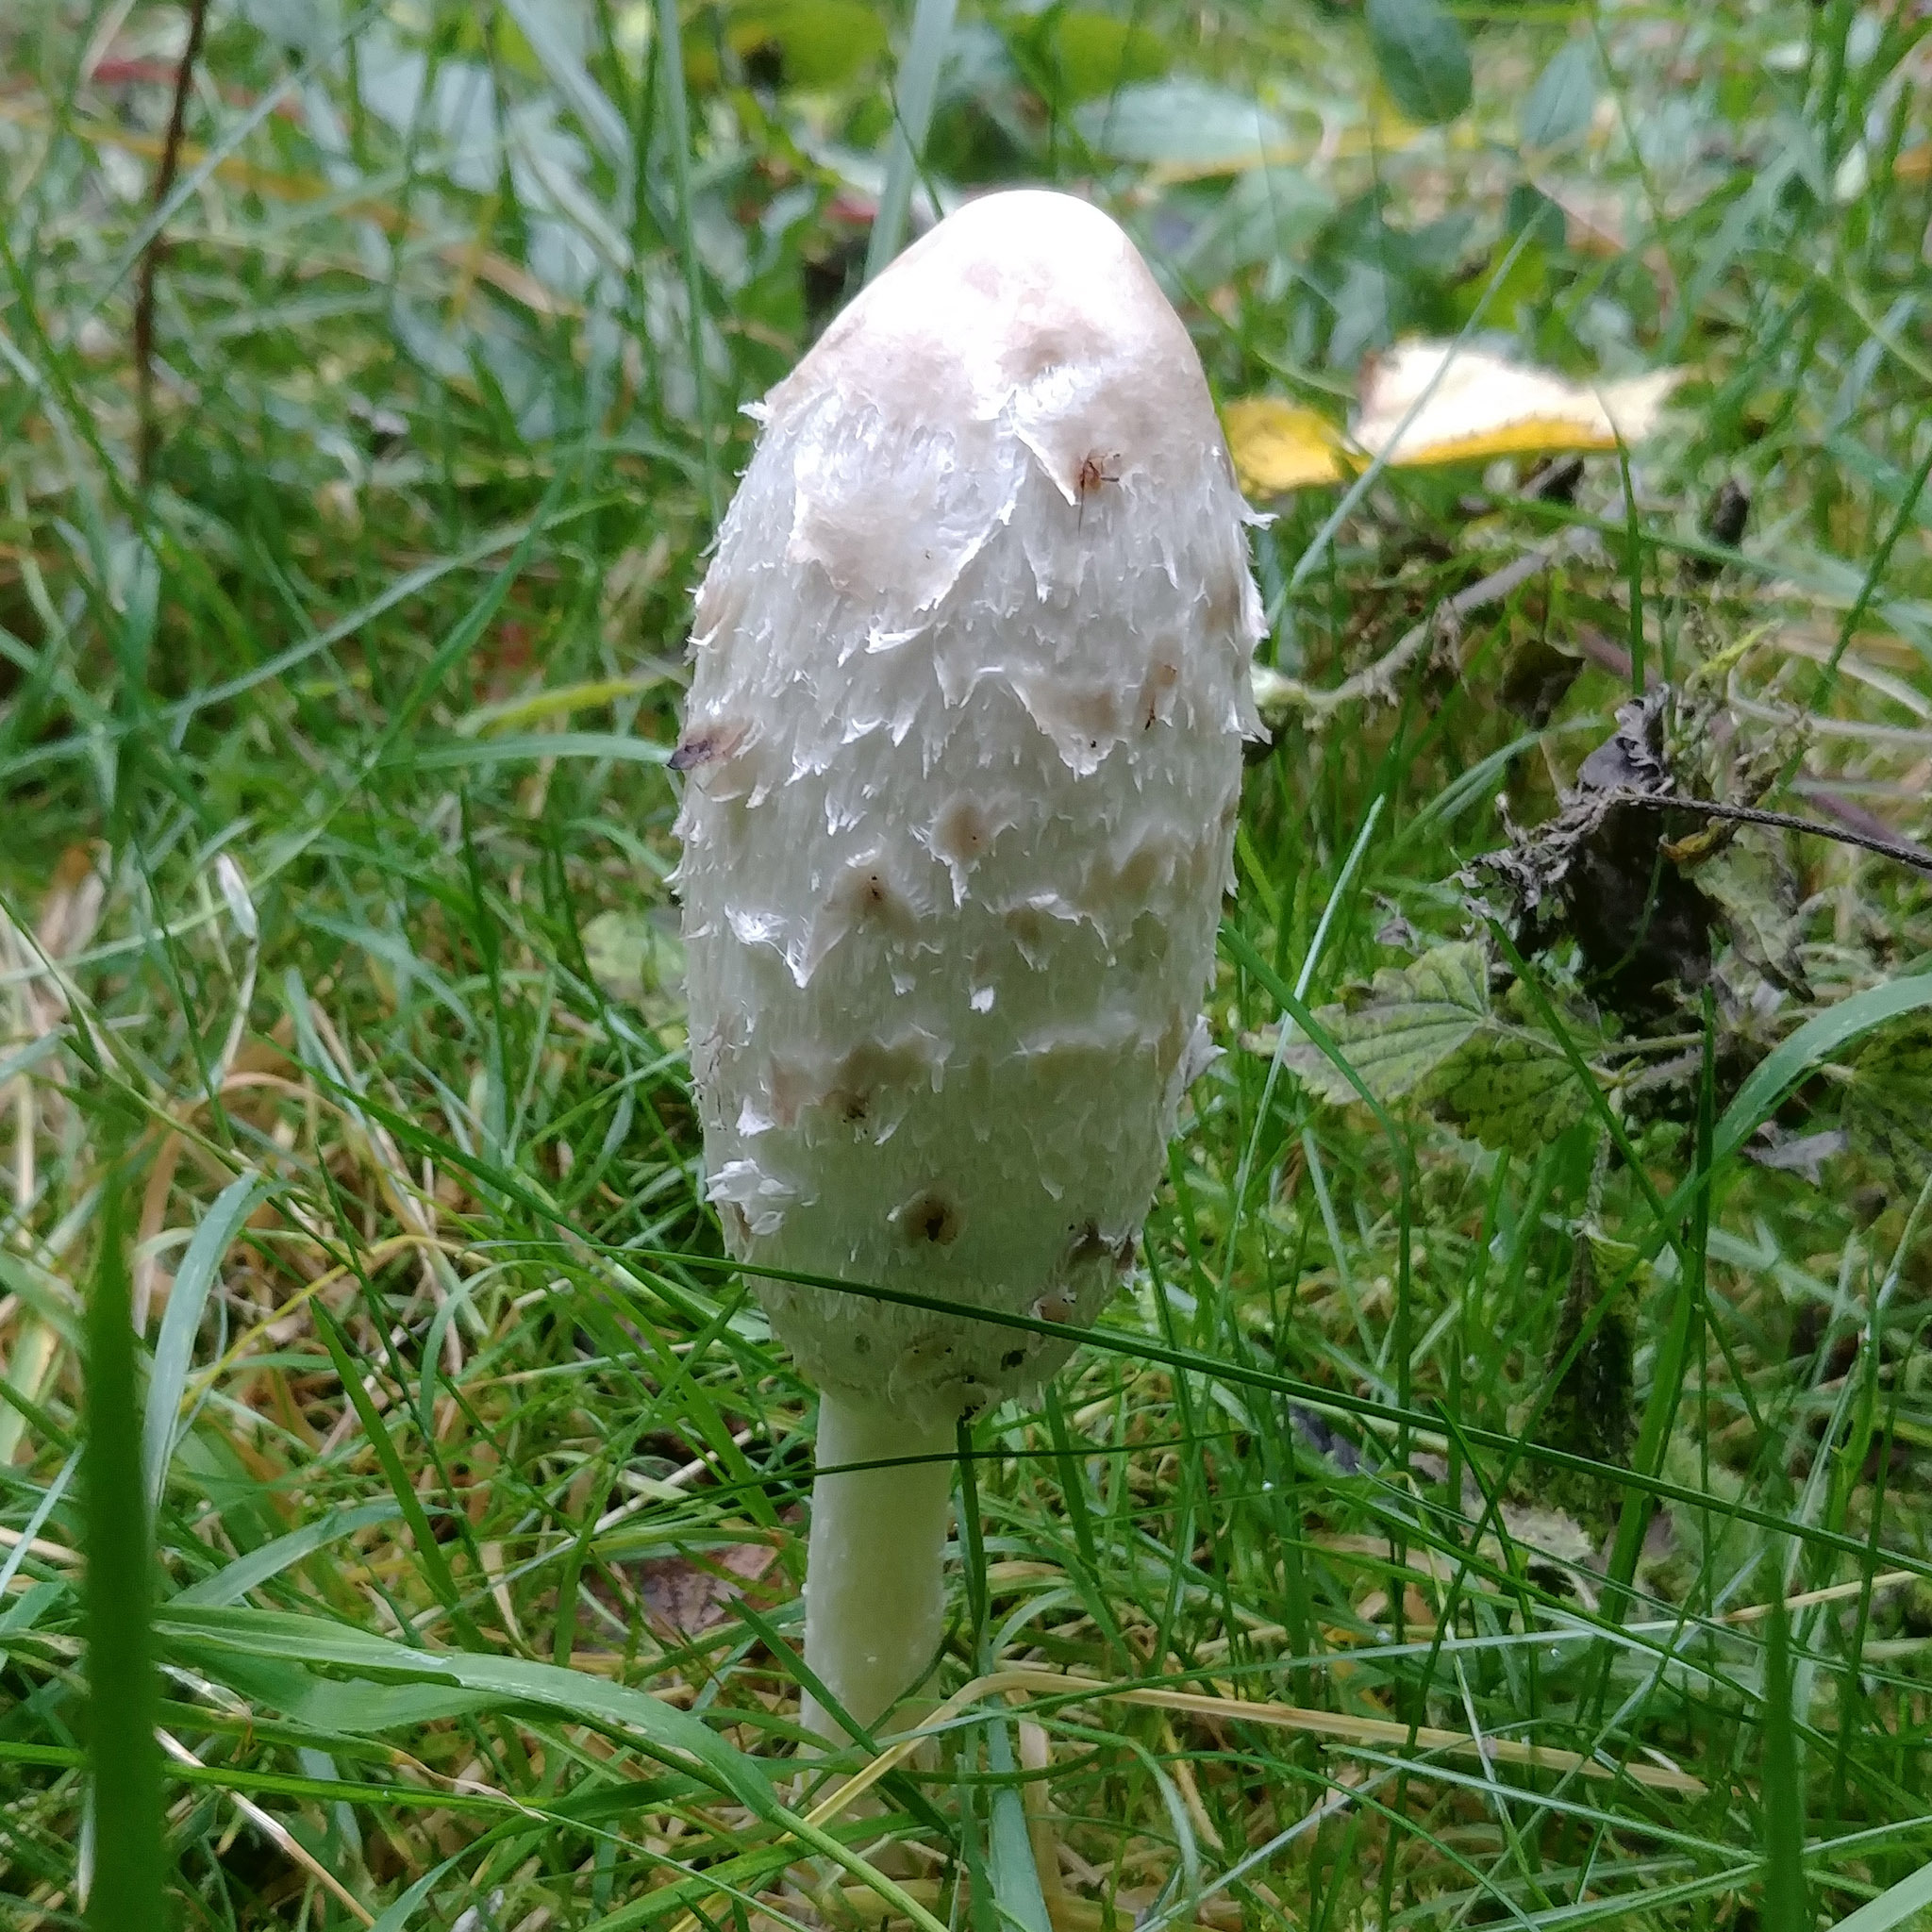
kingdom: Fungi
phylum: Basidiomycota
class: Agaricomycetes
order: Agaricales
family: Agaricaceae
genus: Coprinus
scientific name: Coprinus comatus
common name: Lawyer's wig
